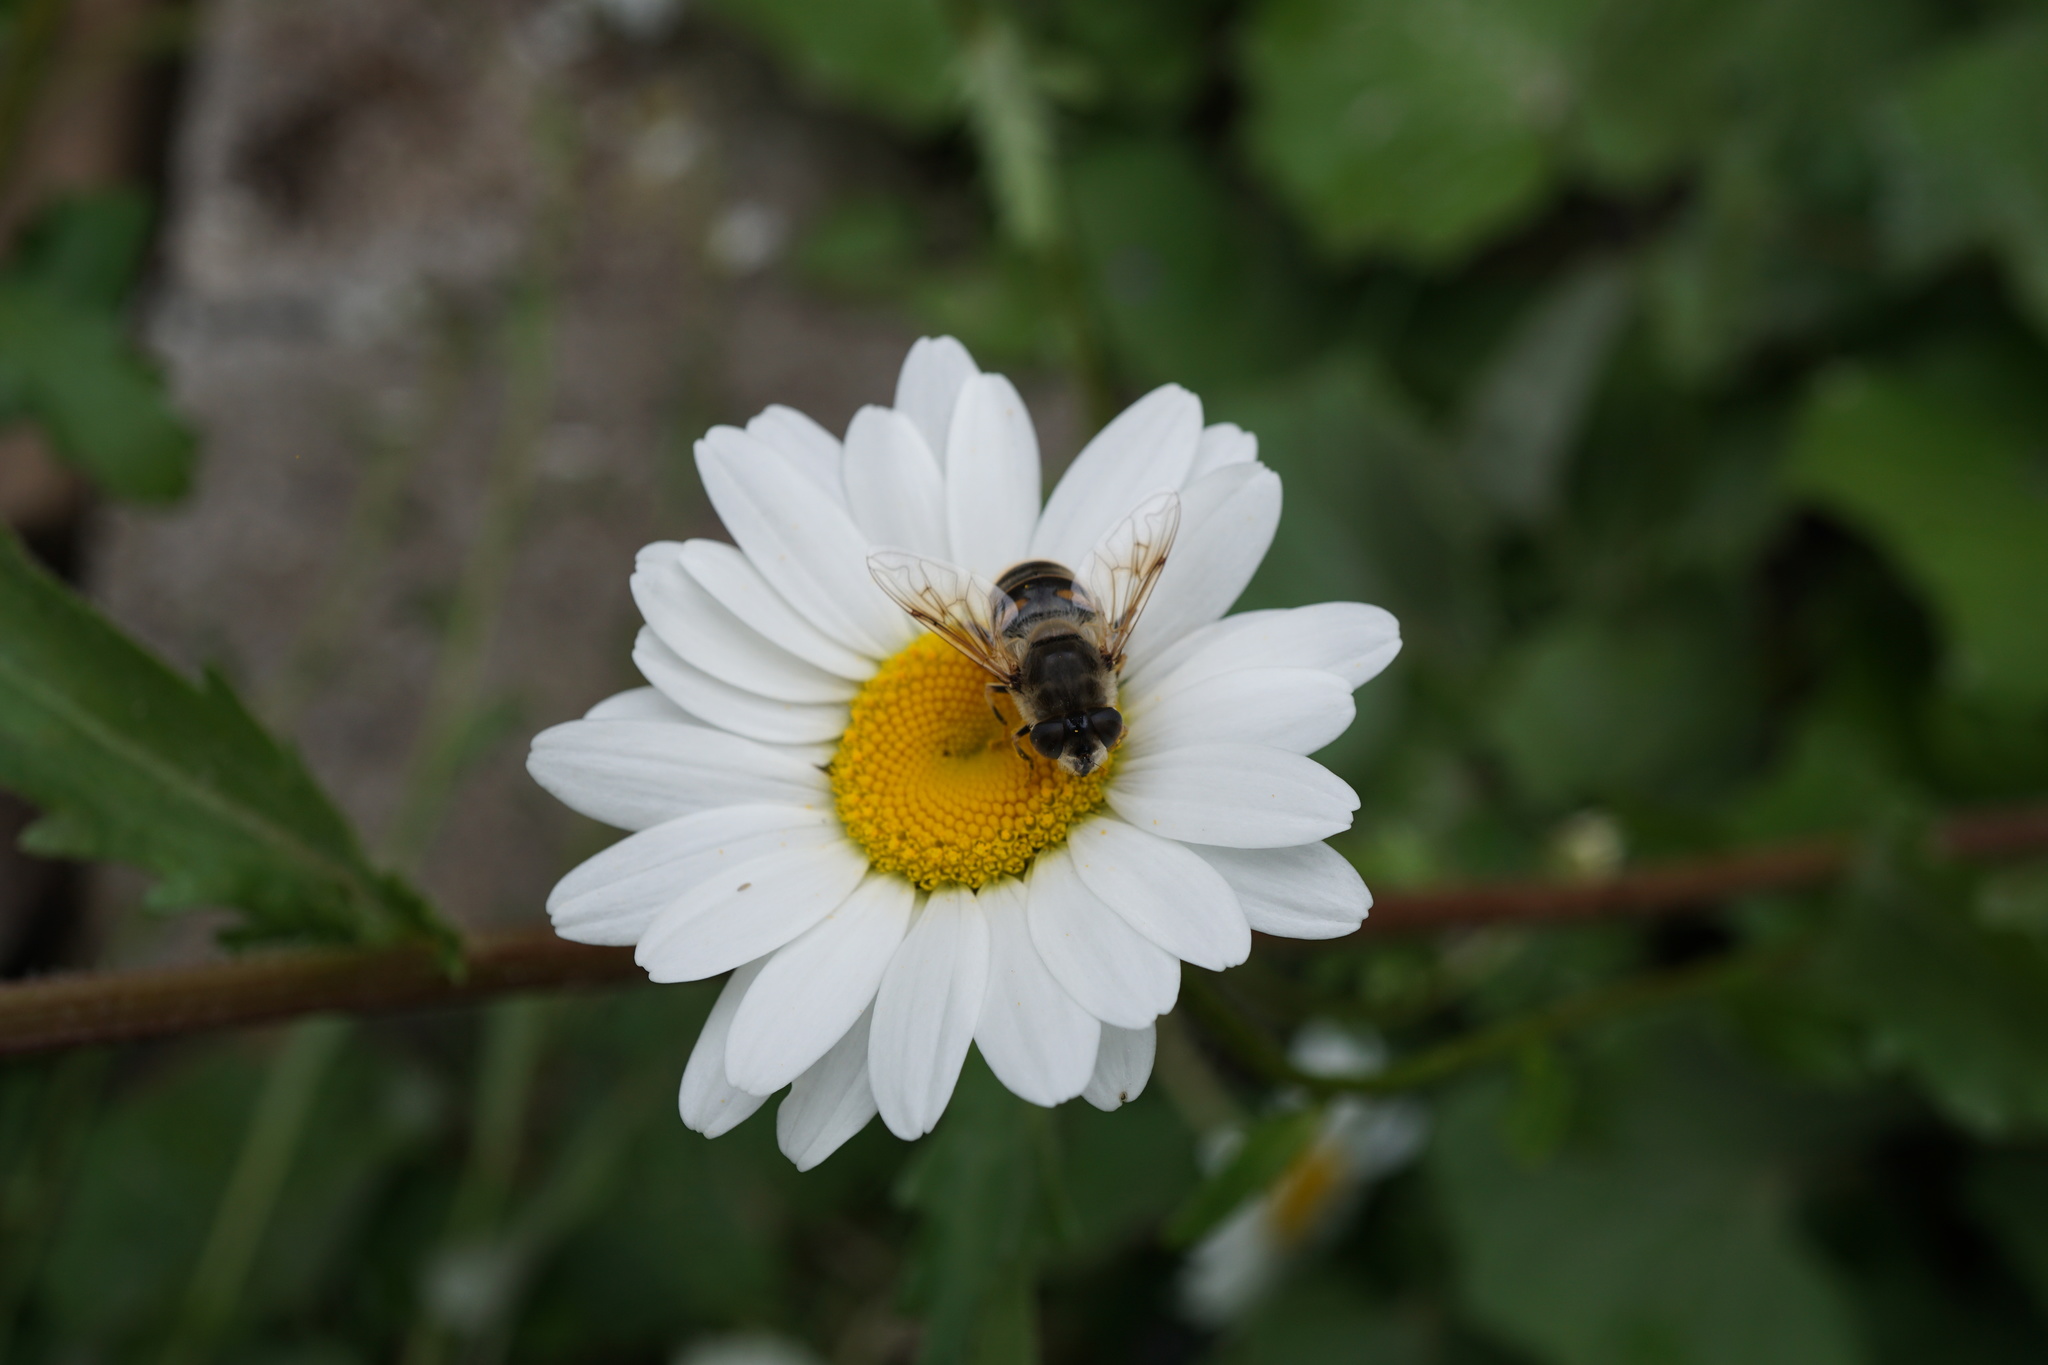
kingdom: Animalia
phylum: Arthropoda
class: Insecta
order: Diptera
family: Syrphidae
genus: Eristalis
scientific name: Eristalis tenax
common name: Drone fly
